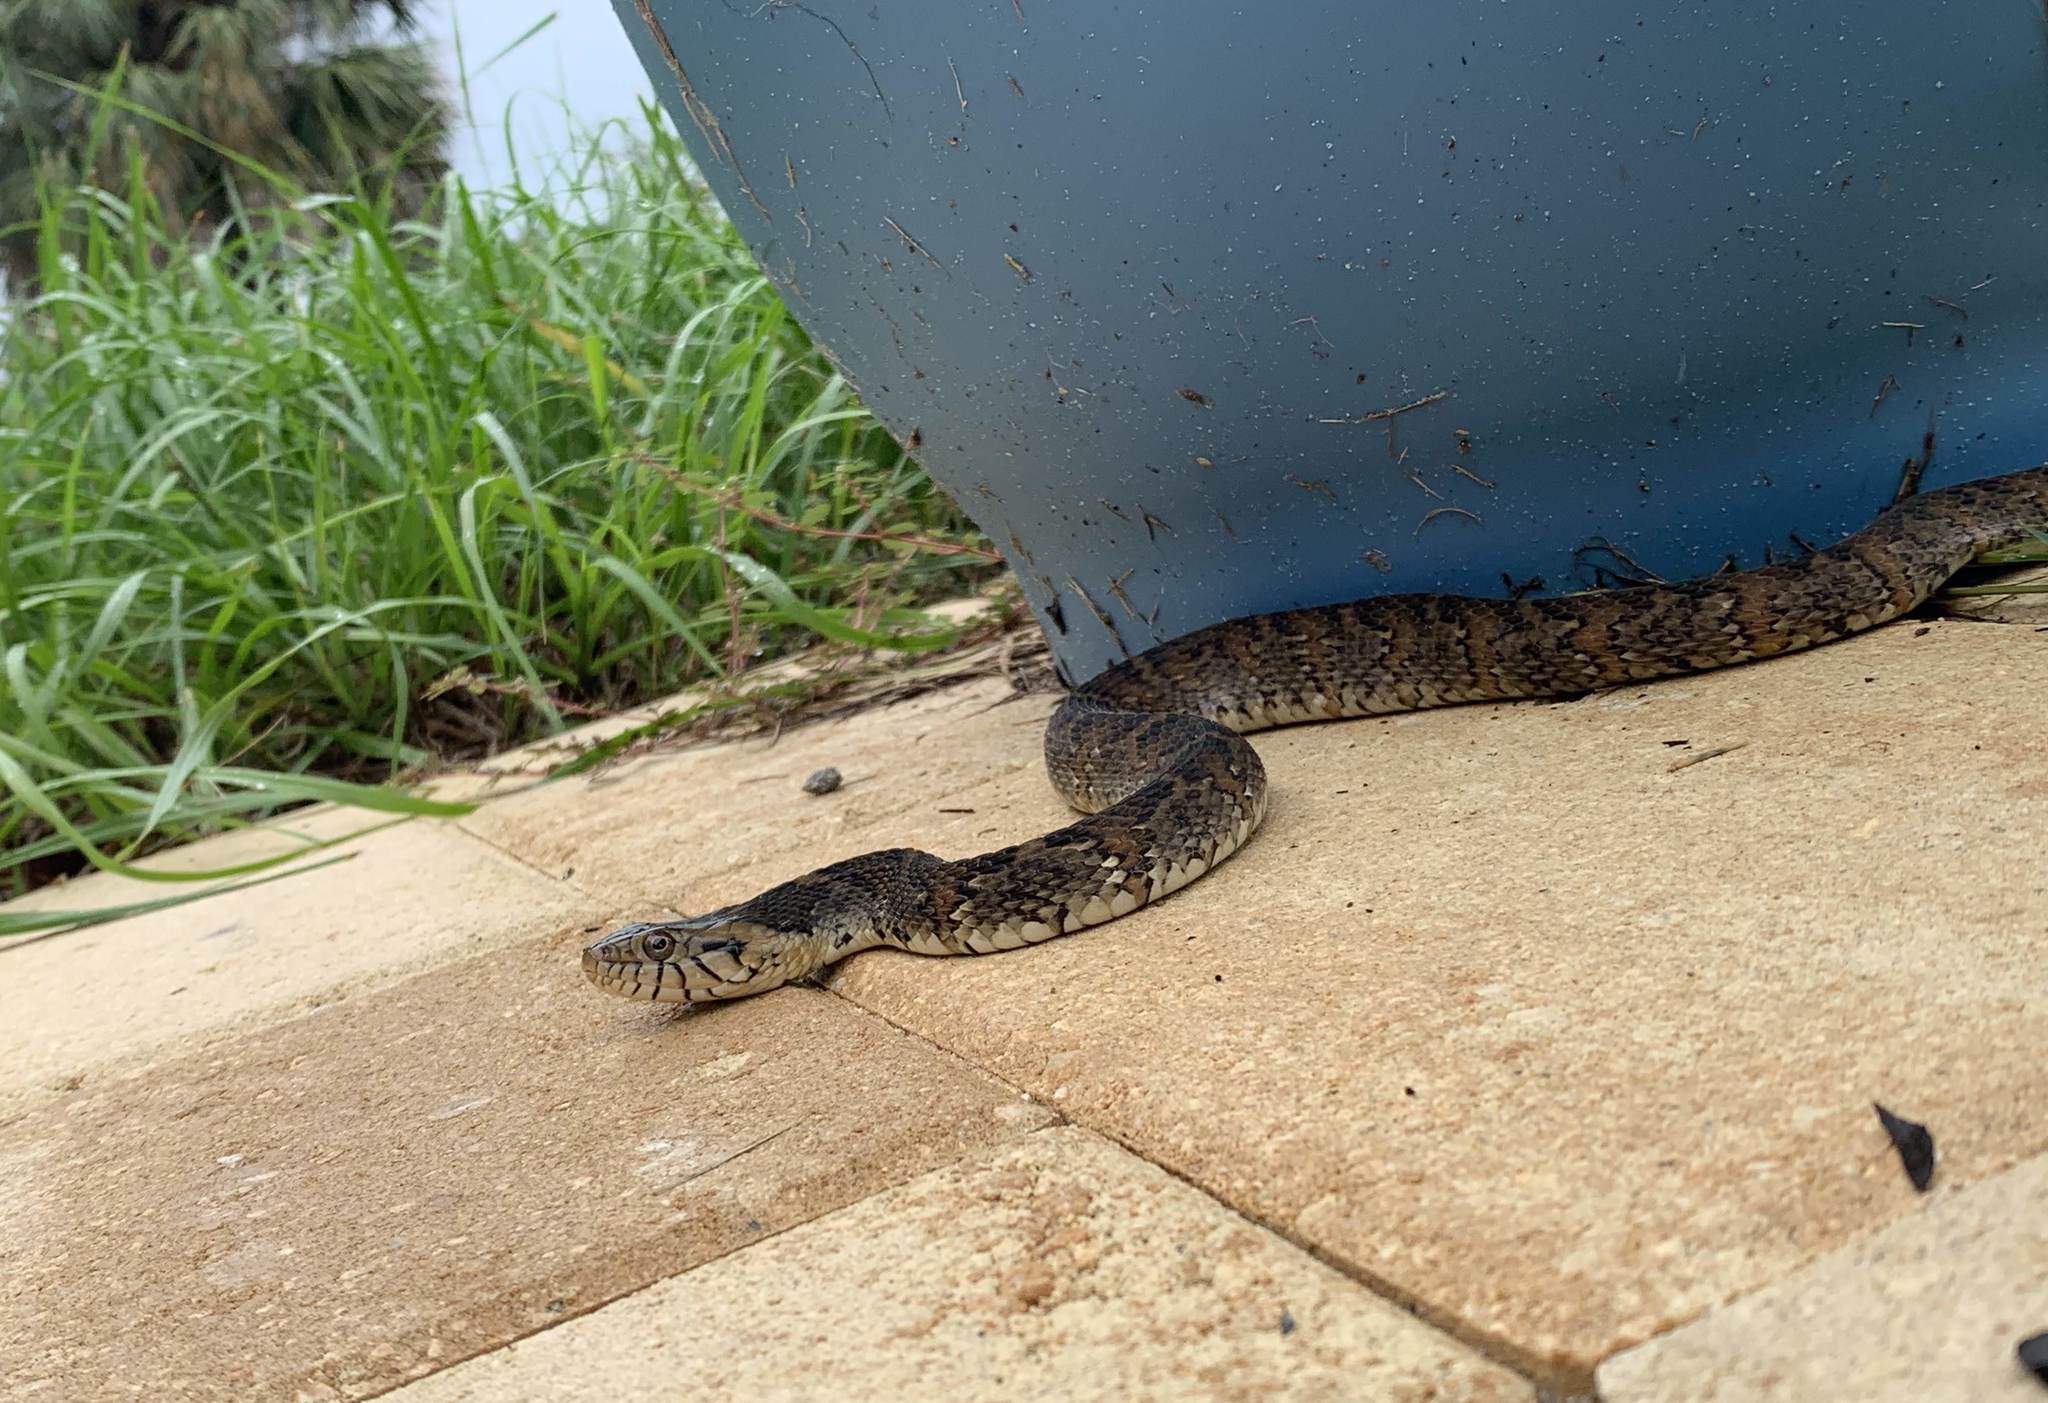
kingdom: Animalia
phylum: Chordata
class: Squamata
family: Colubridae
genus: Nerodia
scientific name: Nerodia fasciata
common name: Southern water snake
